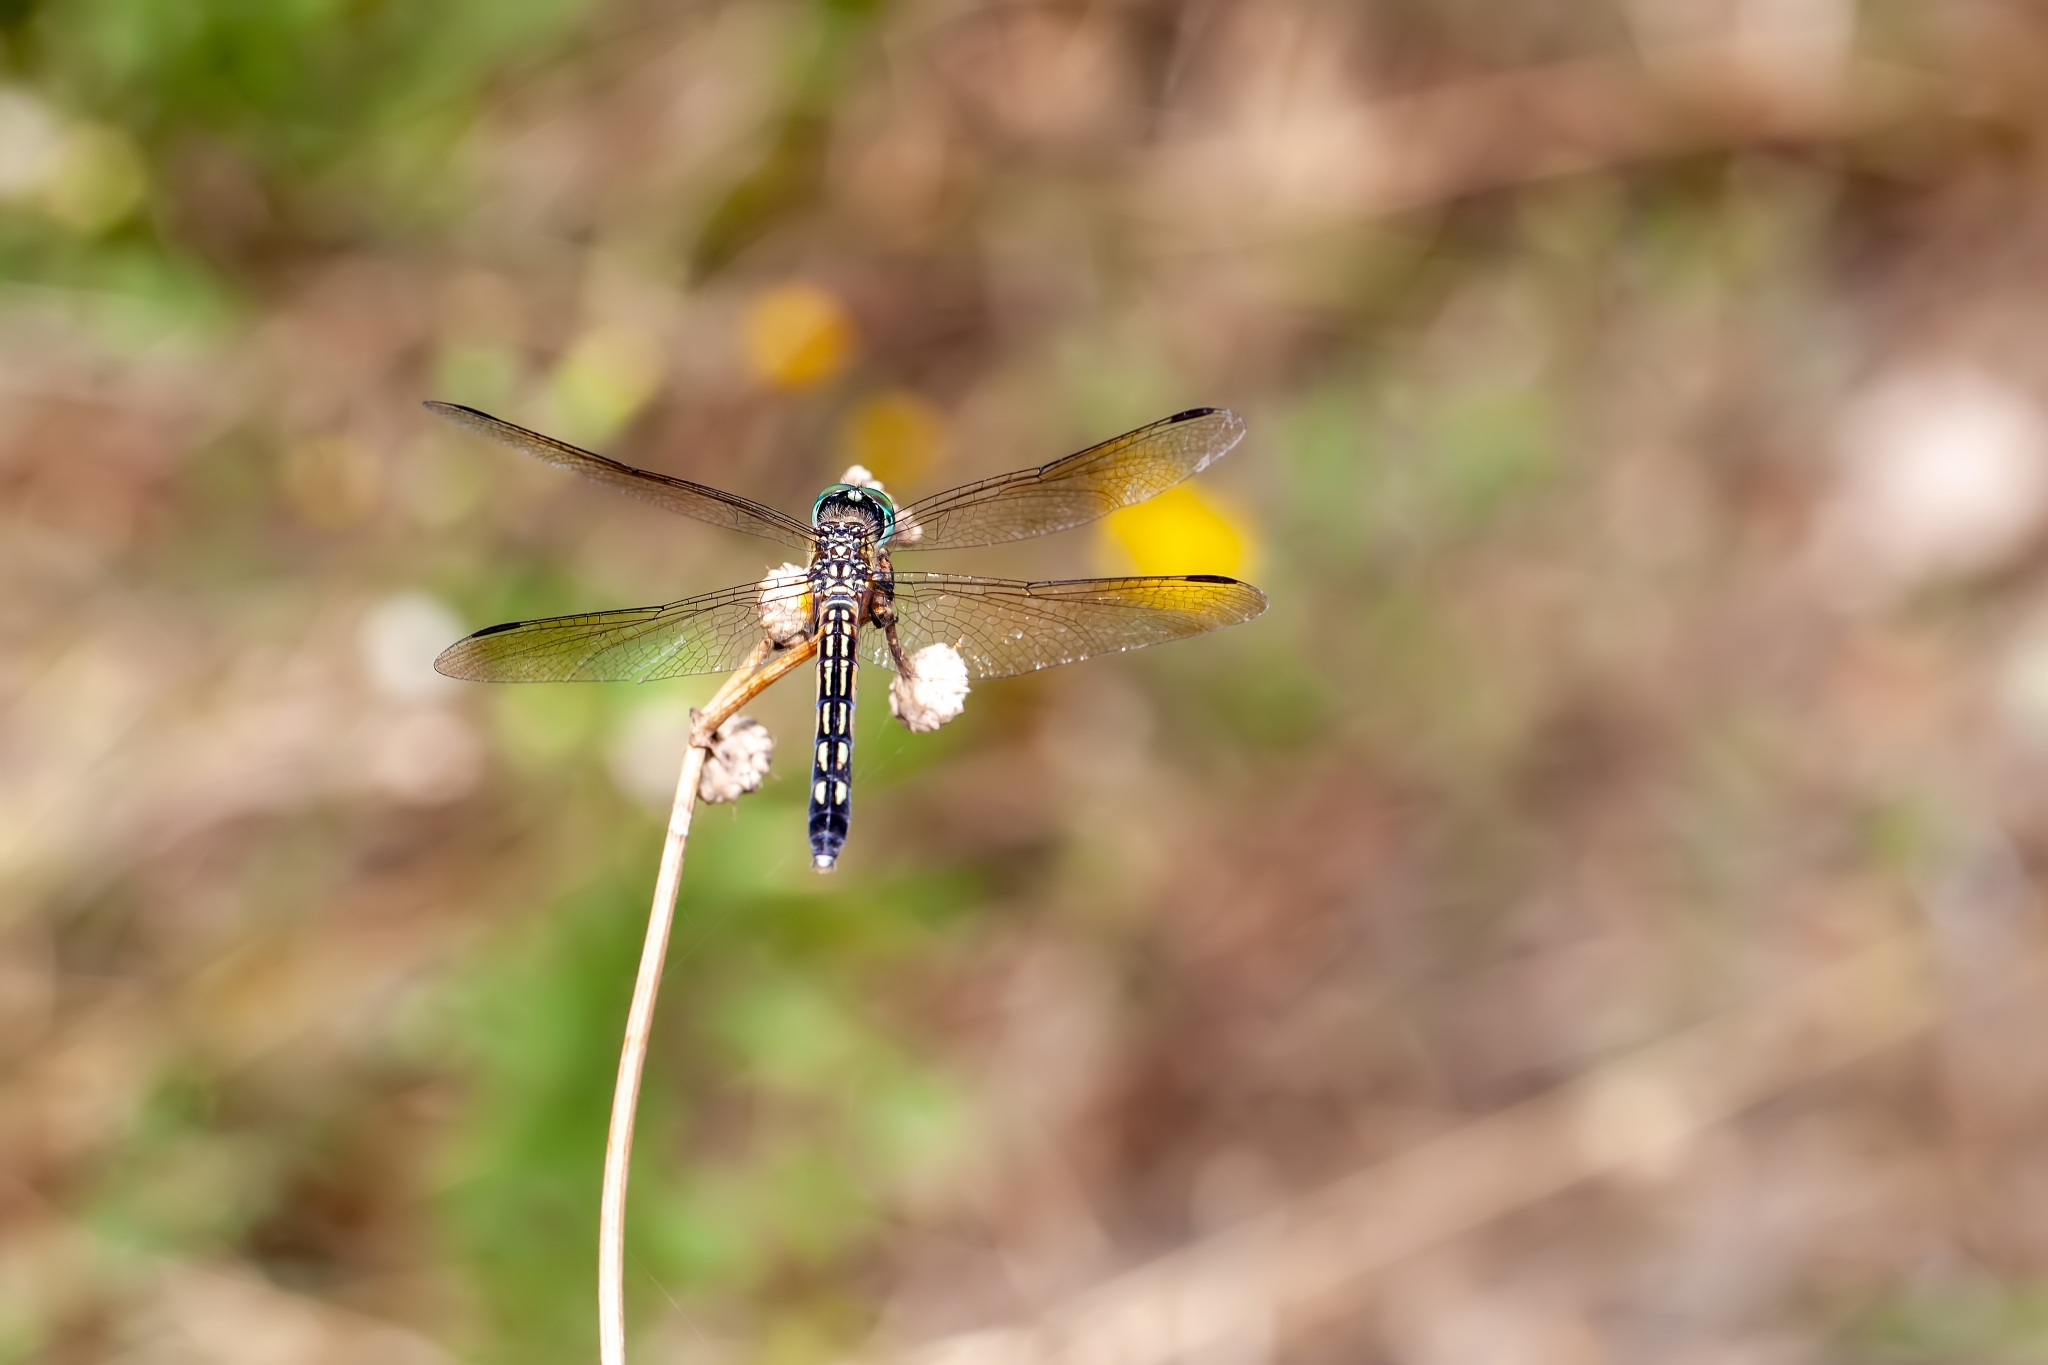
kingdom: Animalia
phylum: Arthropoda
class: Insecta
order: Odonata
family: Libellulidae
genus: Pachydiplax
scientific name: Pachydiplax longipennis
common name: Blue dasher
